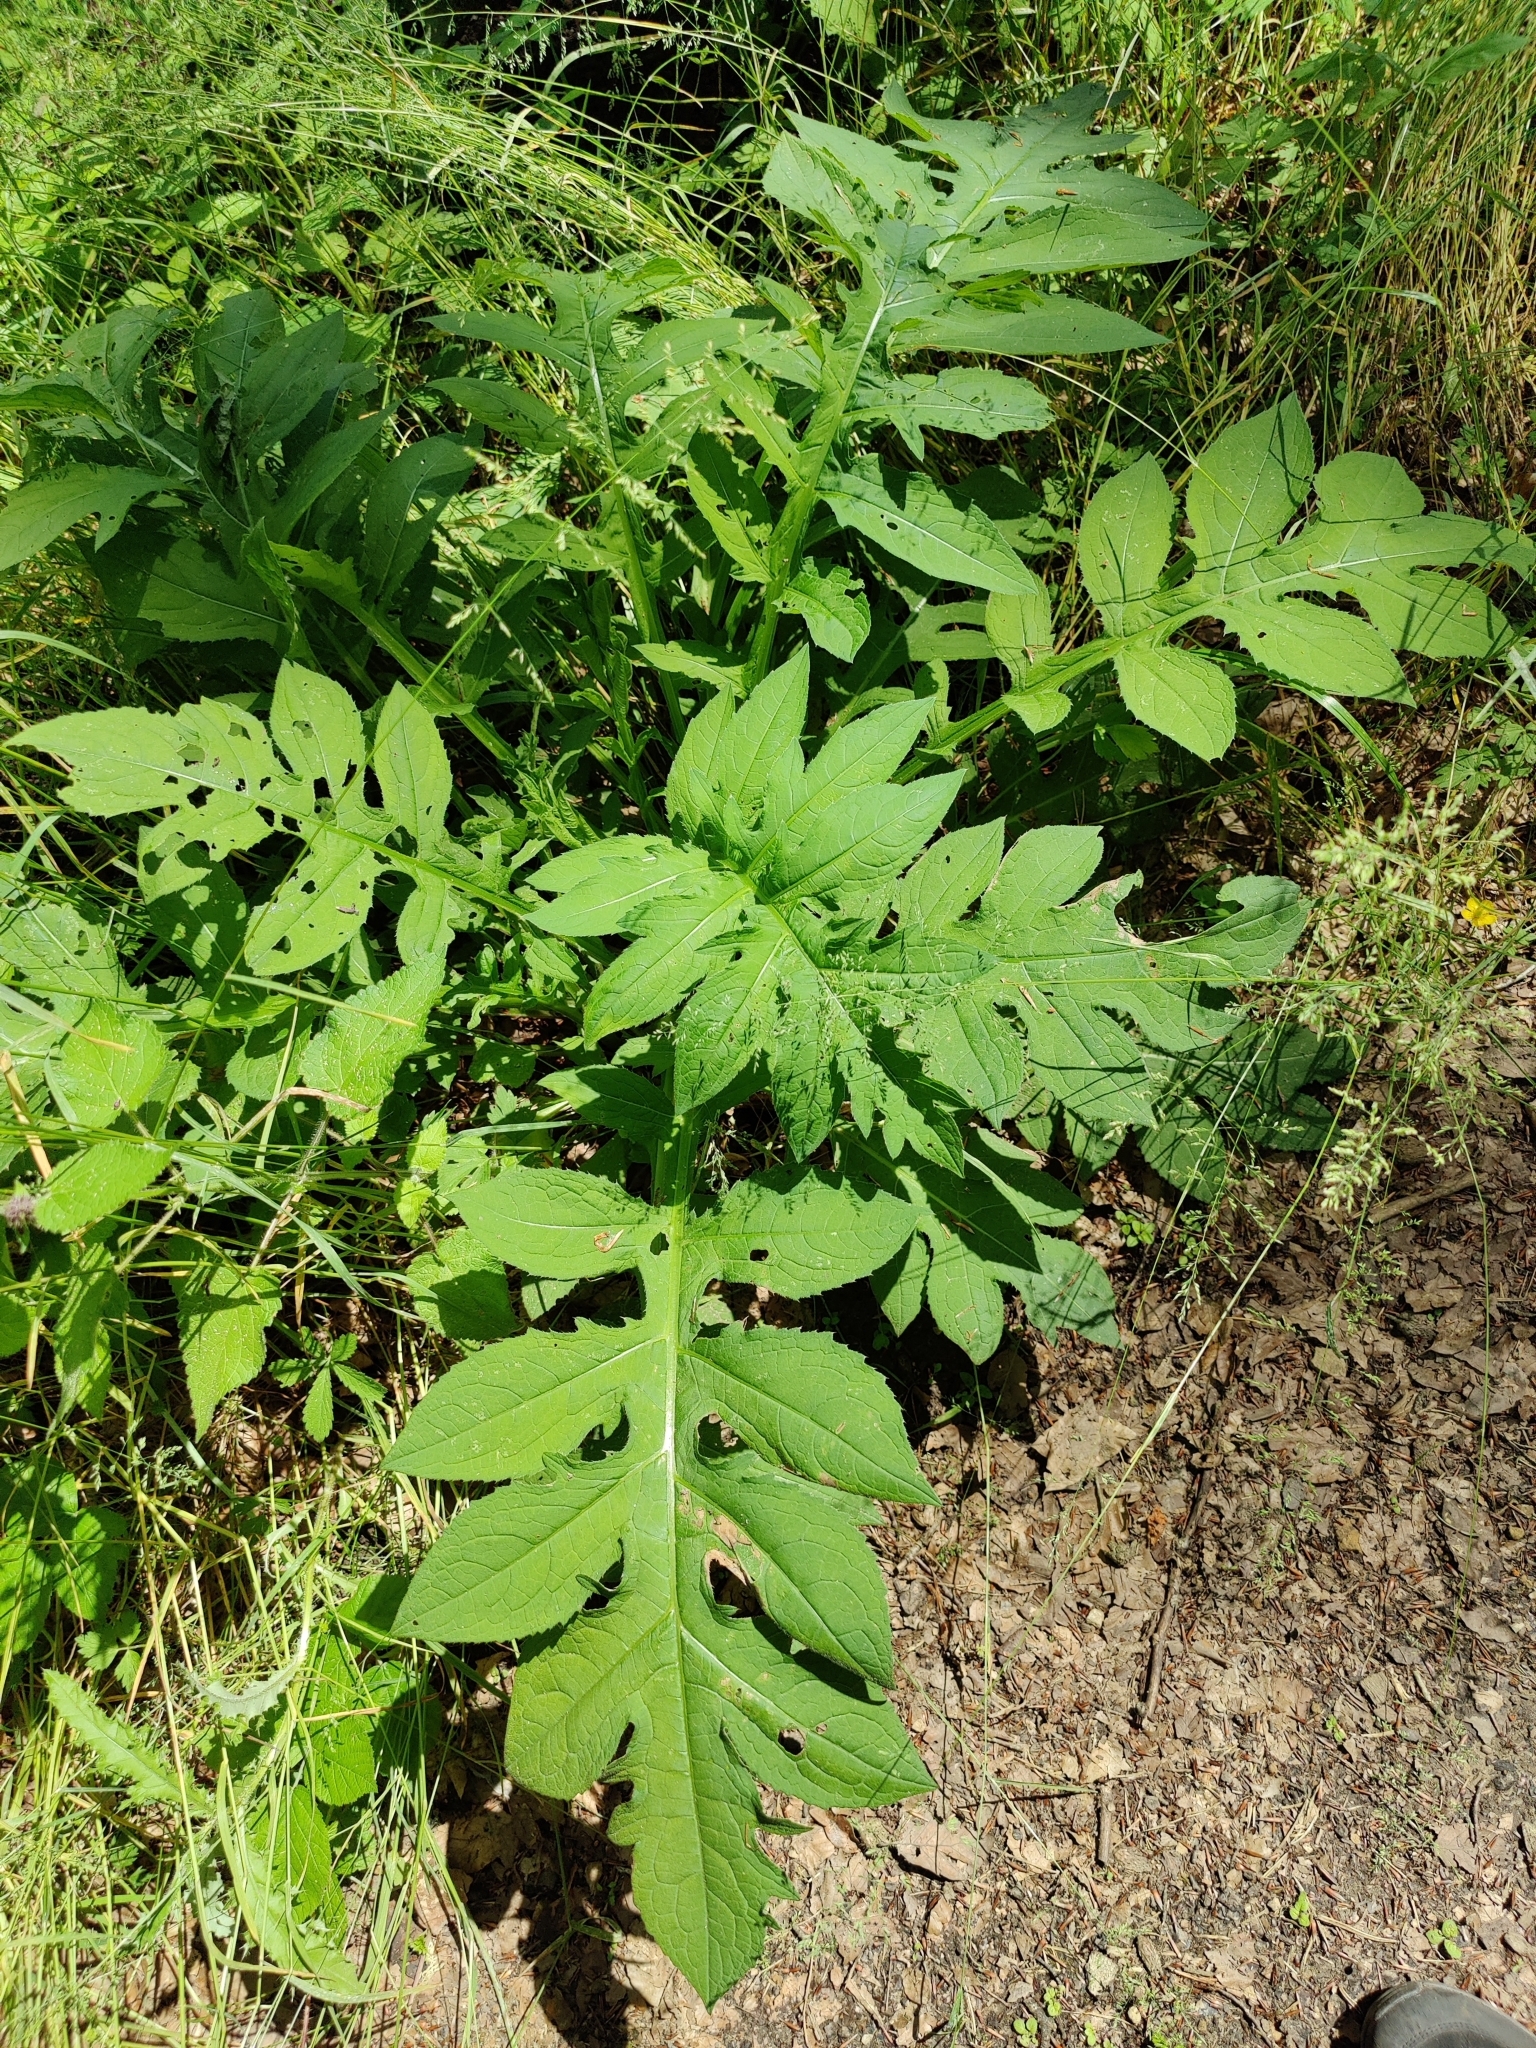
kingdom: Plantae
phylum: Tracheophyta
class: Magnoliopsida
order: Asterales
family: Asteraceae
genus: Cirsium
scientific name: Cirsium oleraceum
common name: Cabbage thistle
